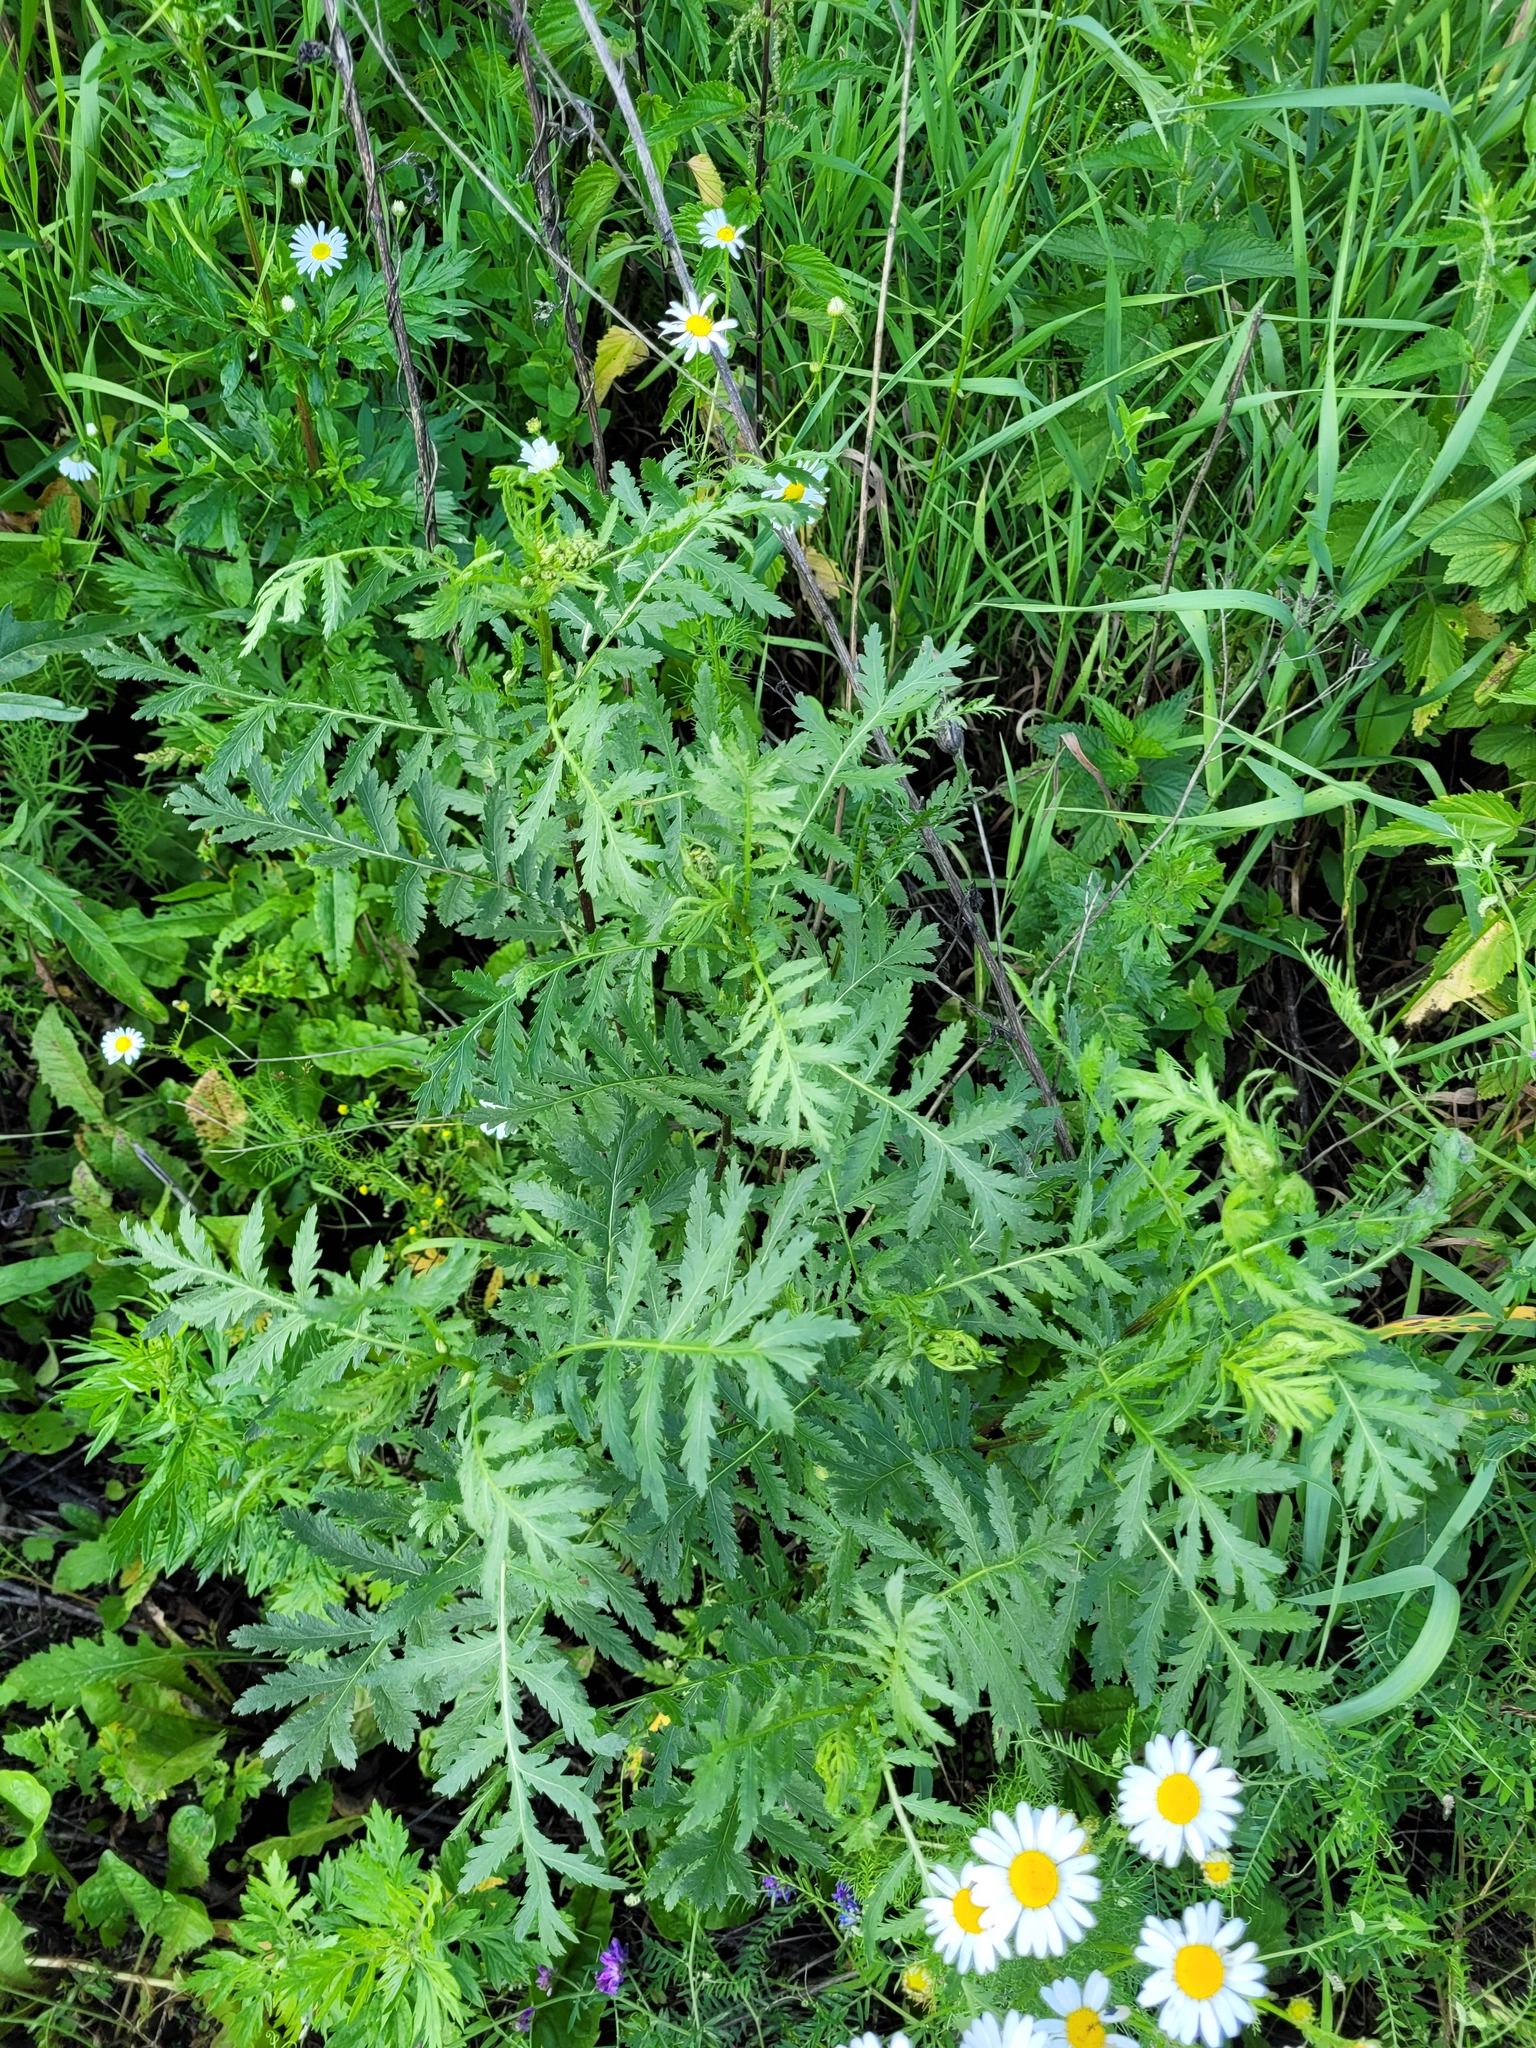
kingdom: Plantae
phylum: Tracheophyta
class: Magnoliopsida
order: Asterales
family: Asteraceae
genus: Tanacetum
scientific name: Tanacetum vulgare
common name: Common tansy
